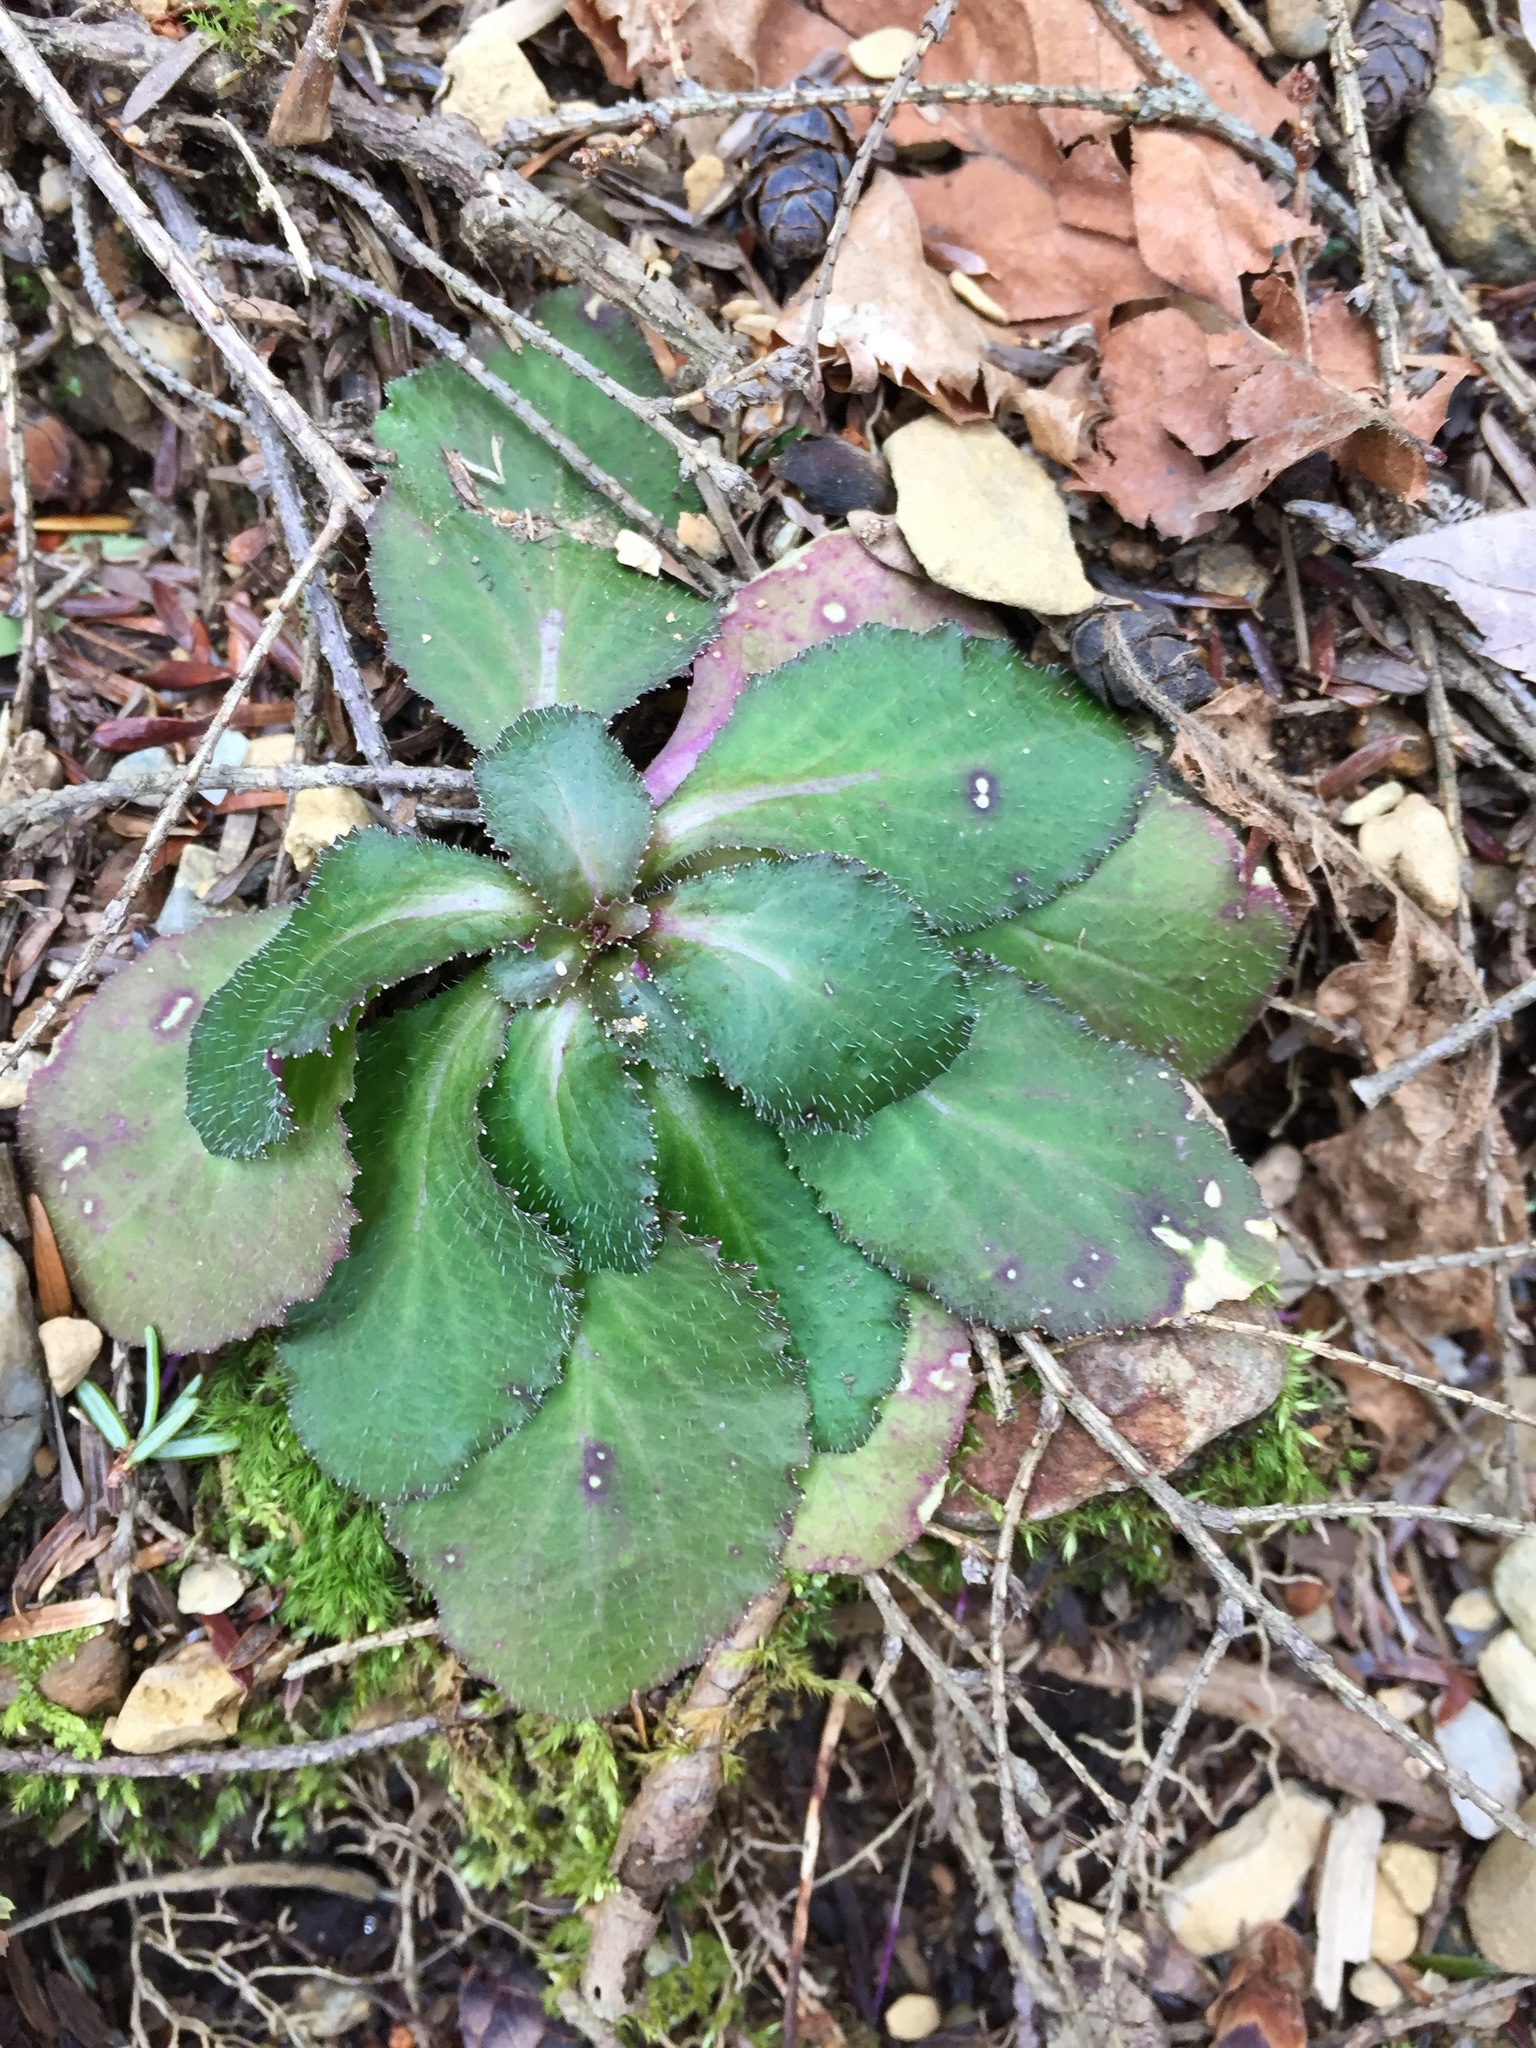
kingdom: Plantae
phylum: Tracheophyta
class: Magnoliopsida
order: Saxifragales
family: Saxifragaceae
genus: Micranthes
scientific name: Micranthes virginiensis
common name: Early saxifrage
